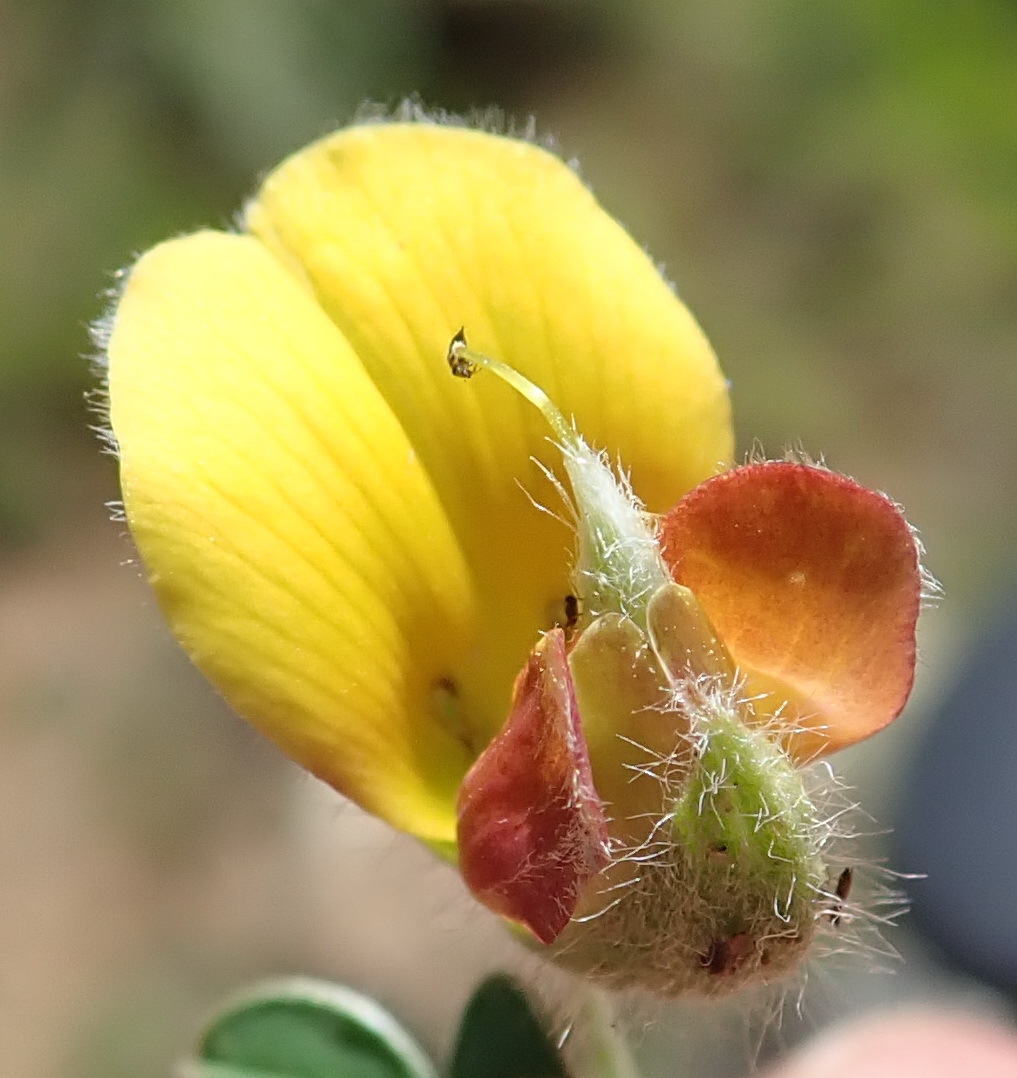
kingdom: Plantae
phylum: Tracheophyta
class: Magnoliopsida
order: Fabales
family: Fabaceae
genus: Argyrolobium
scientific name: Argyrolobium argenteum
